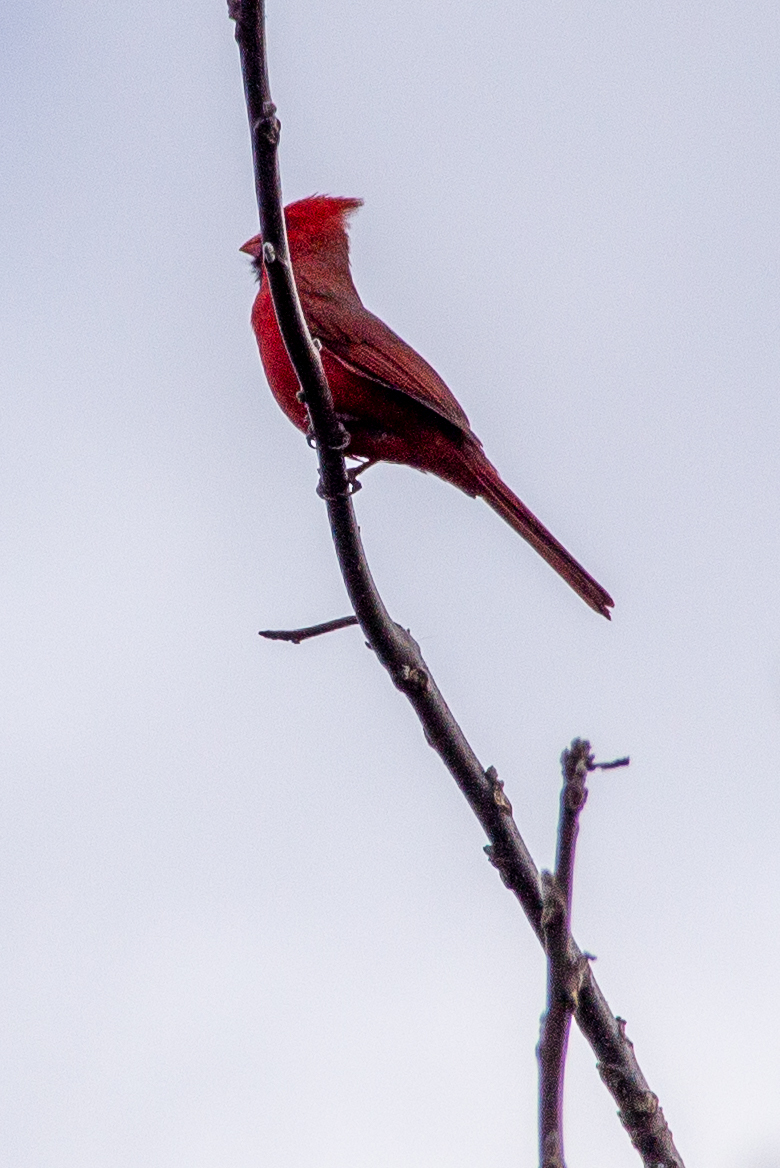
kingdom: Animalia
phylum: Chordata
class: Aves
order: Passeriformes
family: Cardinalidae
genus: Cardinalis
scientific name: Cardinalis cardinalis
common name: Northern cardinal
